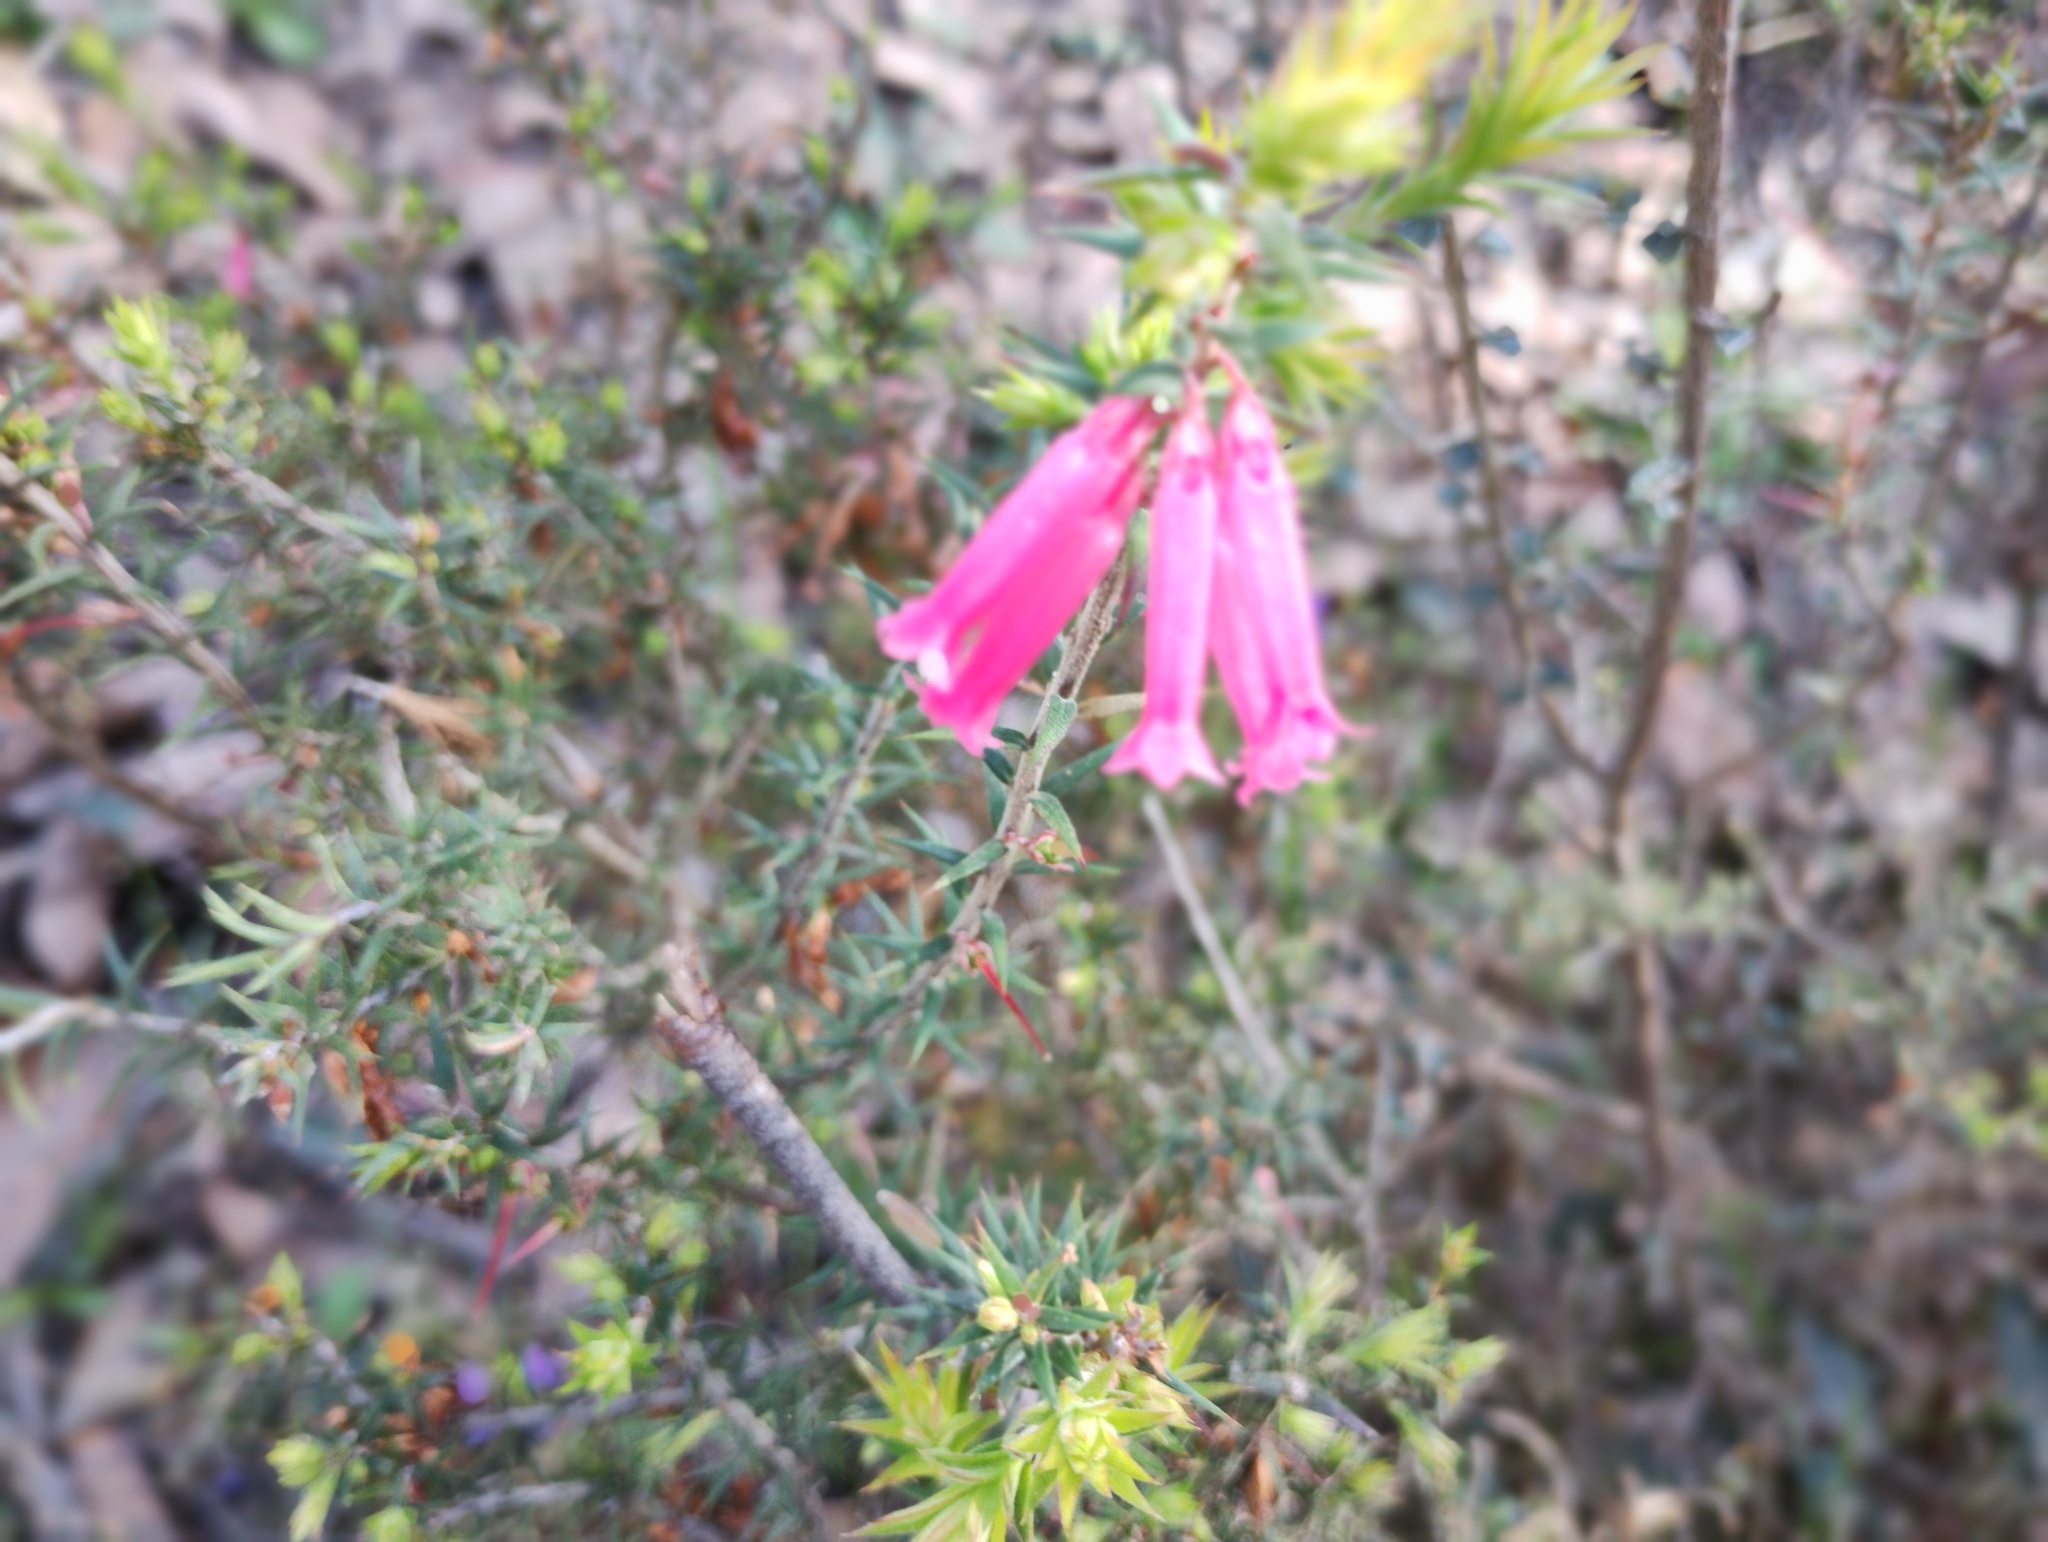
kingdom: Plantae
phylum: Tracheophyta
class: Magnoliopsida
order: Ericales
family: Ericaceae
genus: Epacris
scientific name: Epacris impressa
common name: Common-heath
